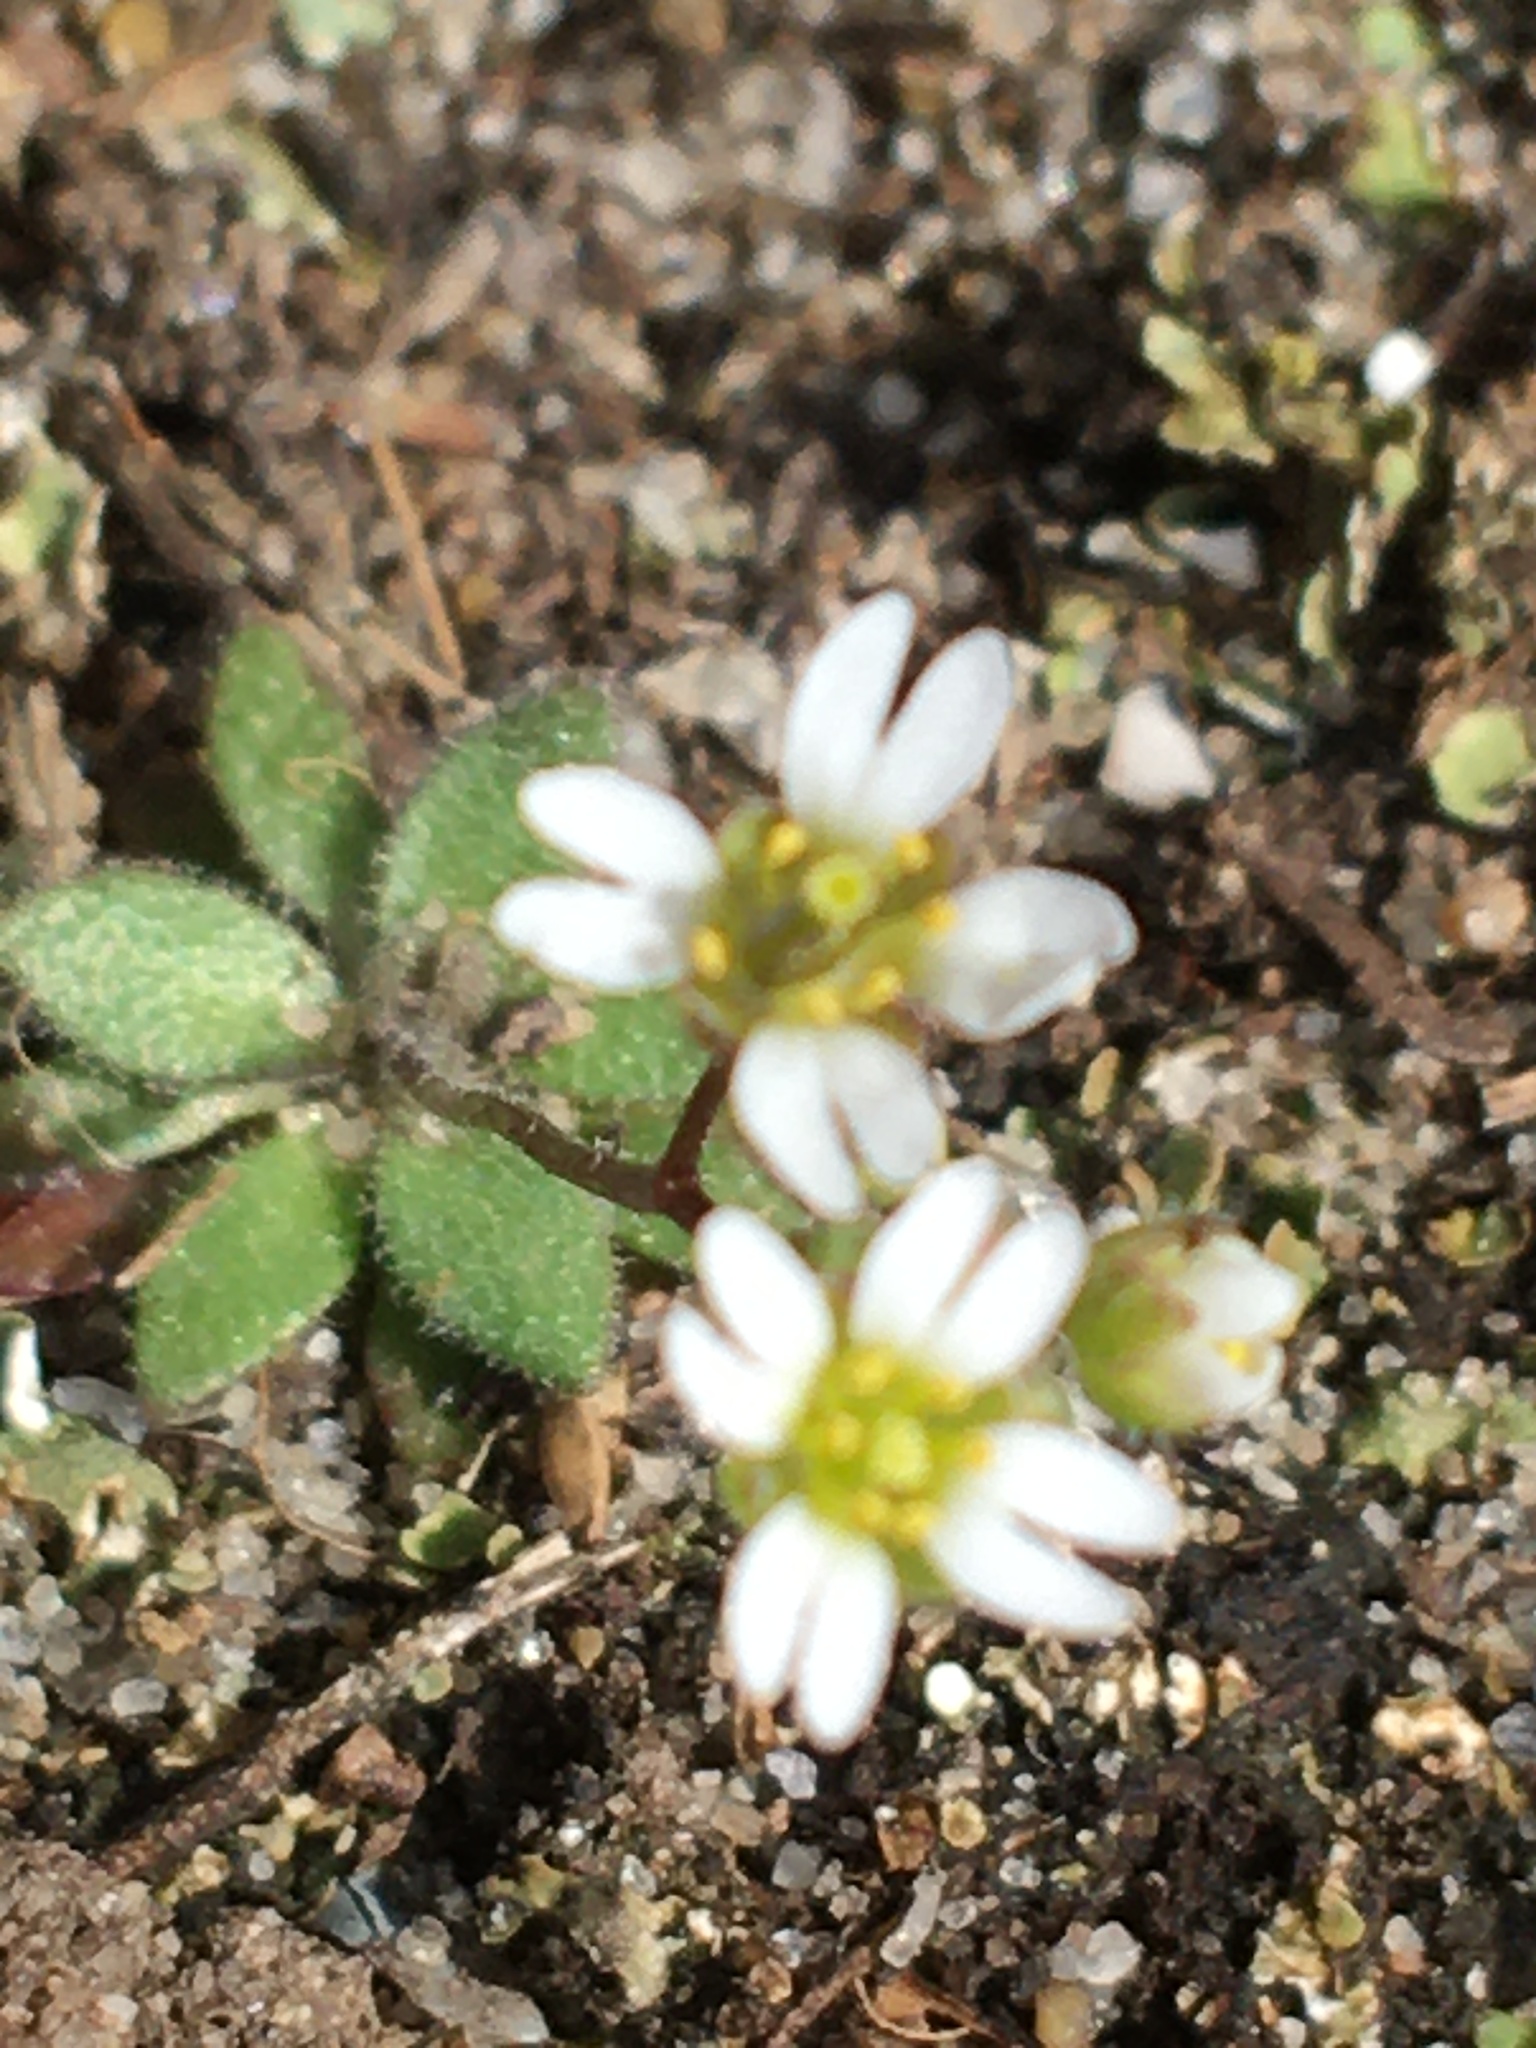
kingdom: Plantae
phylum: Tracheophyta
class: Magnoliopsida
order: Brassicales
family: Brassicaceae
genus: Draba
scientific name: Draba verna
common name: Spring draba
